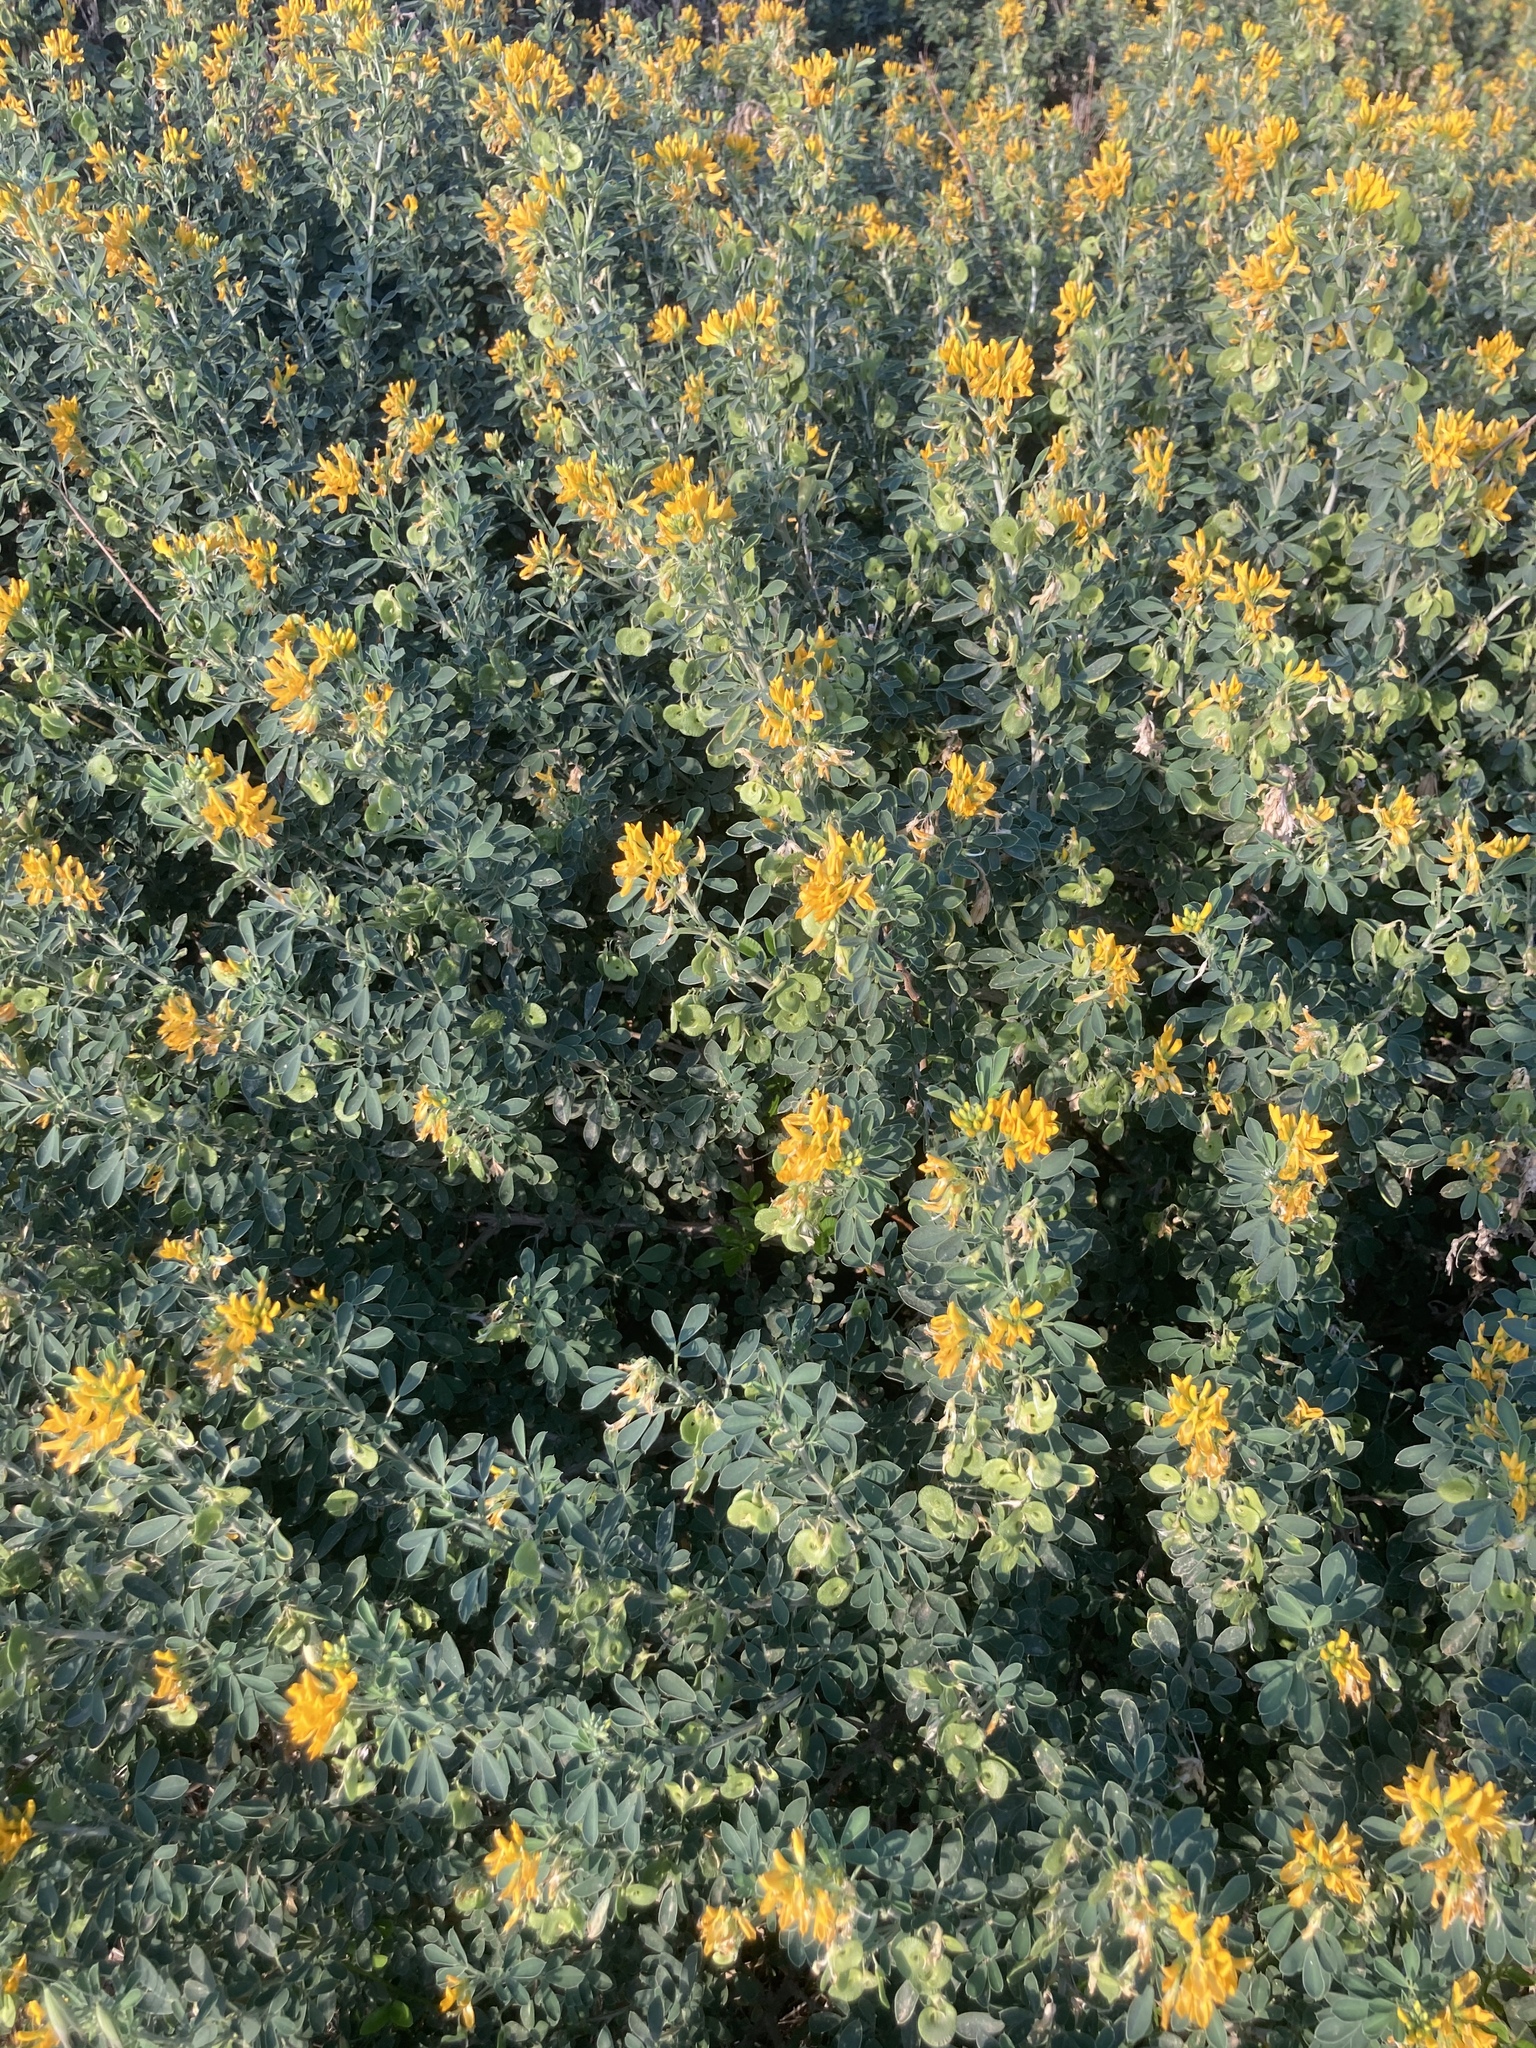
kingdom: Plantae
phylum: Tracheophyta
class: Magnoliopsida
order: Fabales
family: Fabaceae
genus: Medicago
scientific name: Medicago arborea
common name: Moon trefoil
